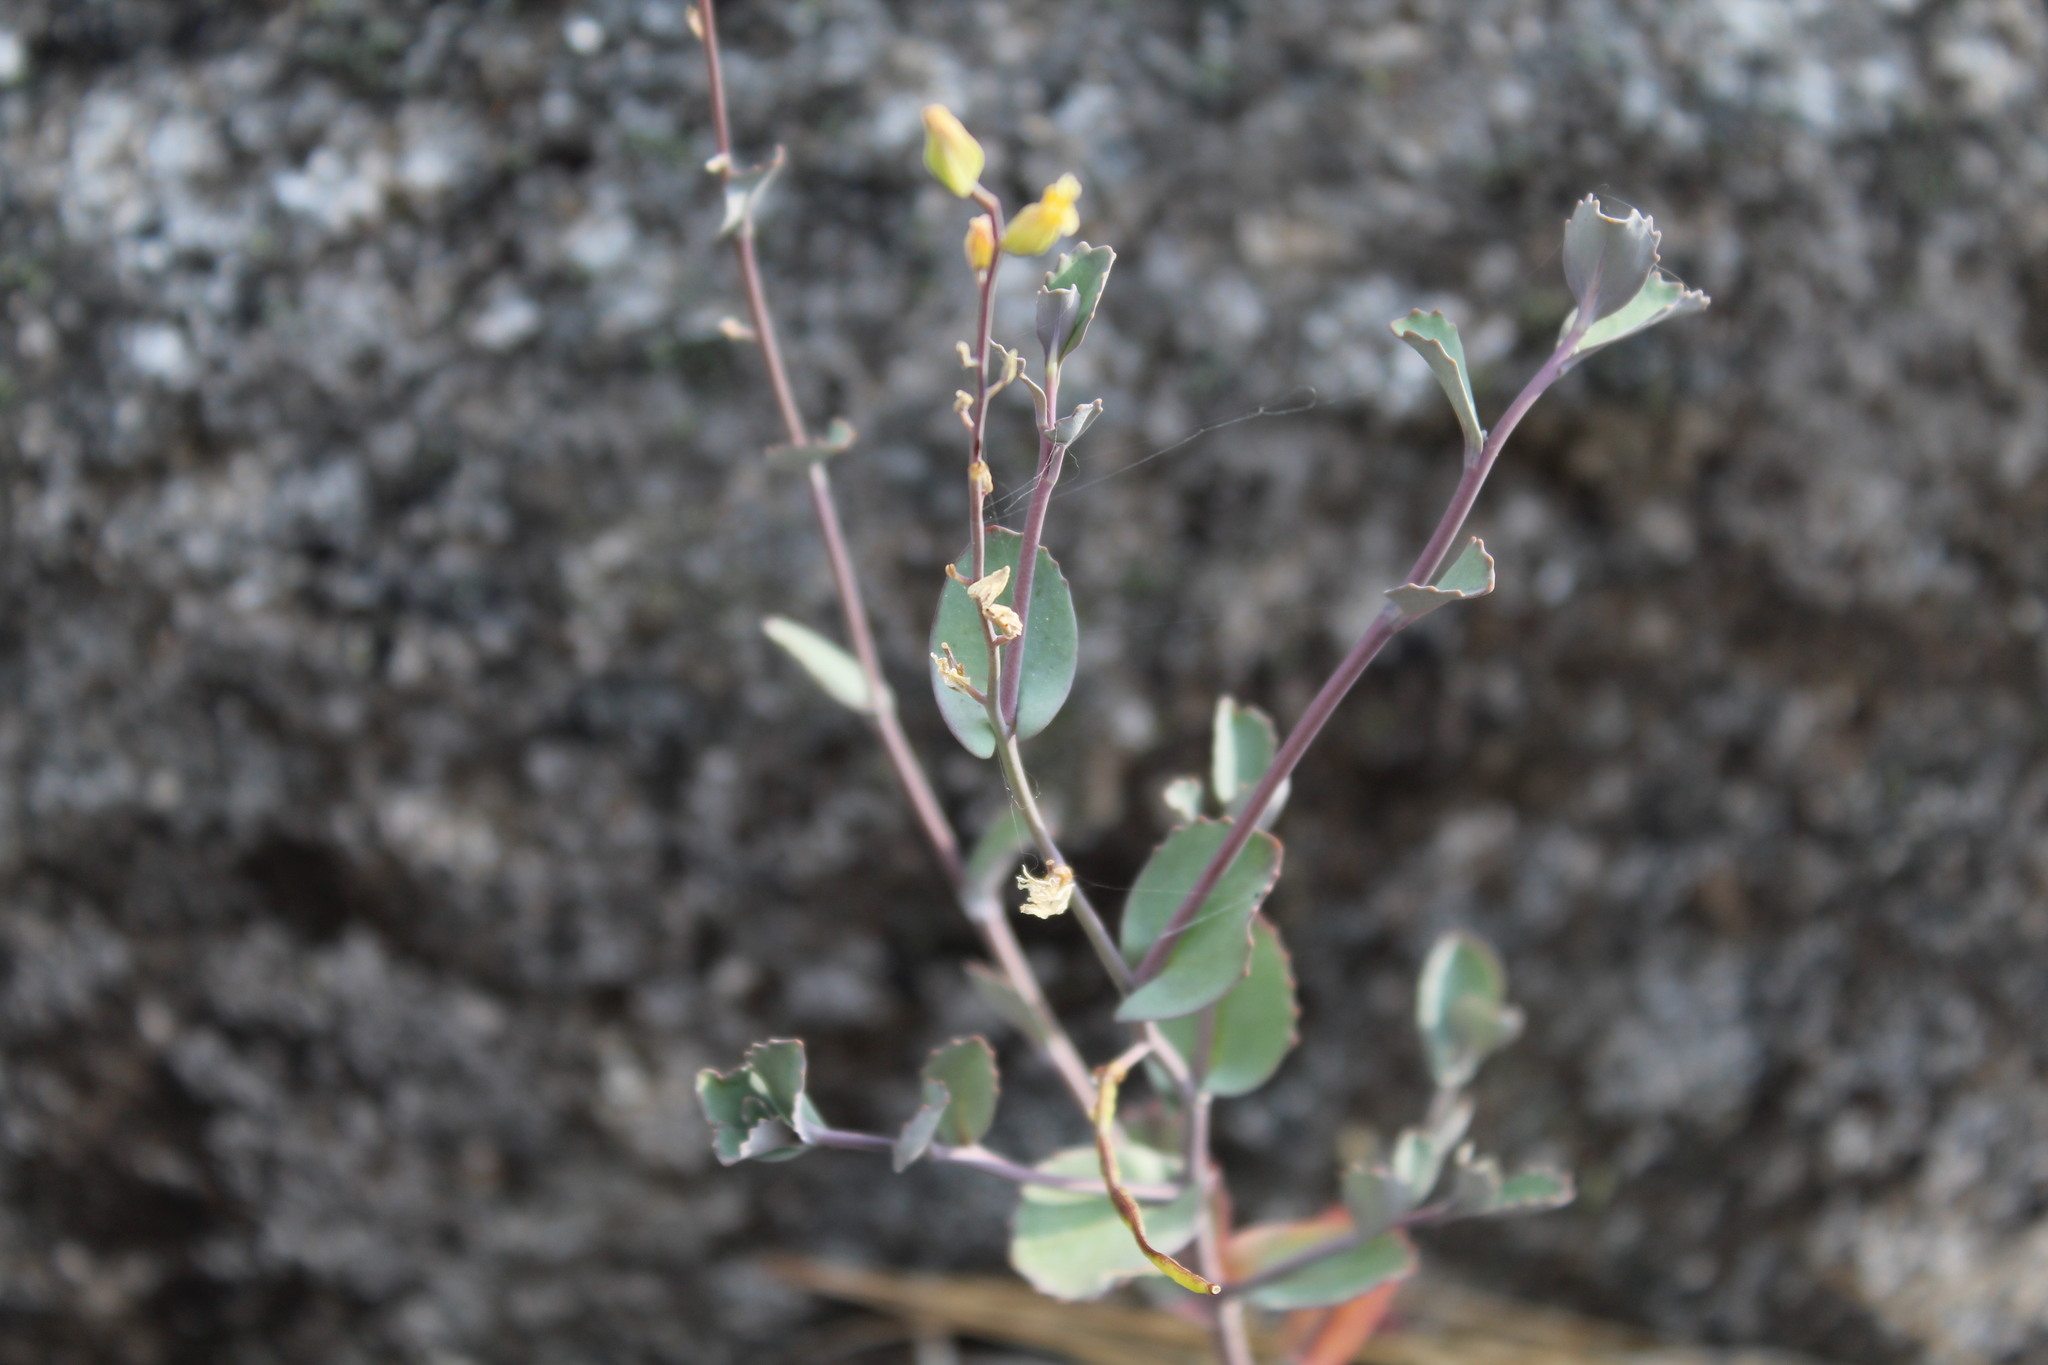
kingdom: Plantae
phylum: Tracheophyta
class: Magnoliopsida
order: Brassicales
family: Brassicaceae
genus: Streptanthus
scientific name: Streptanthus tortuosus
